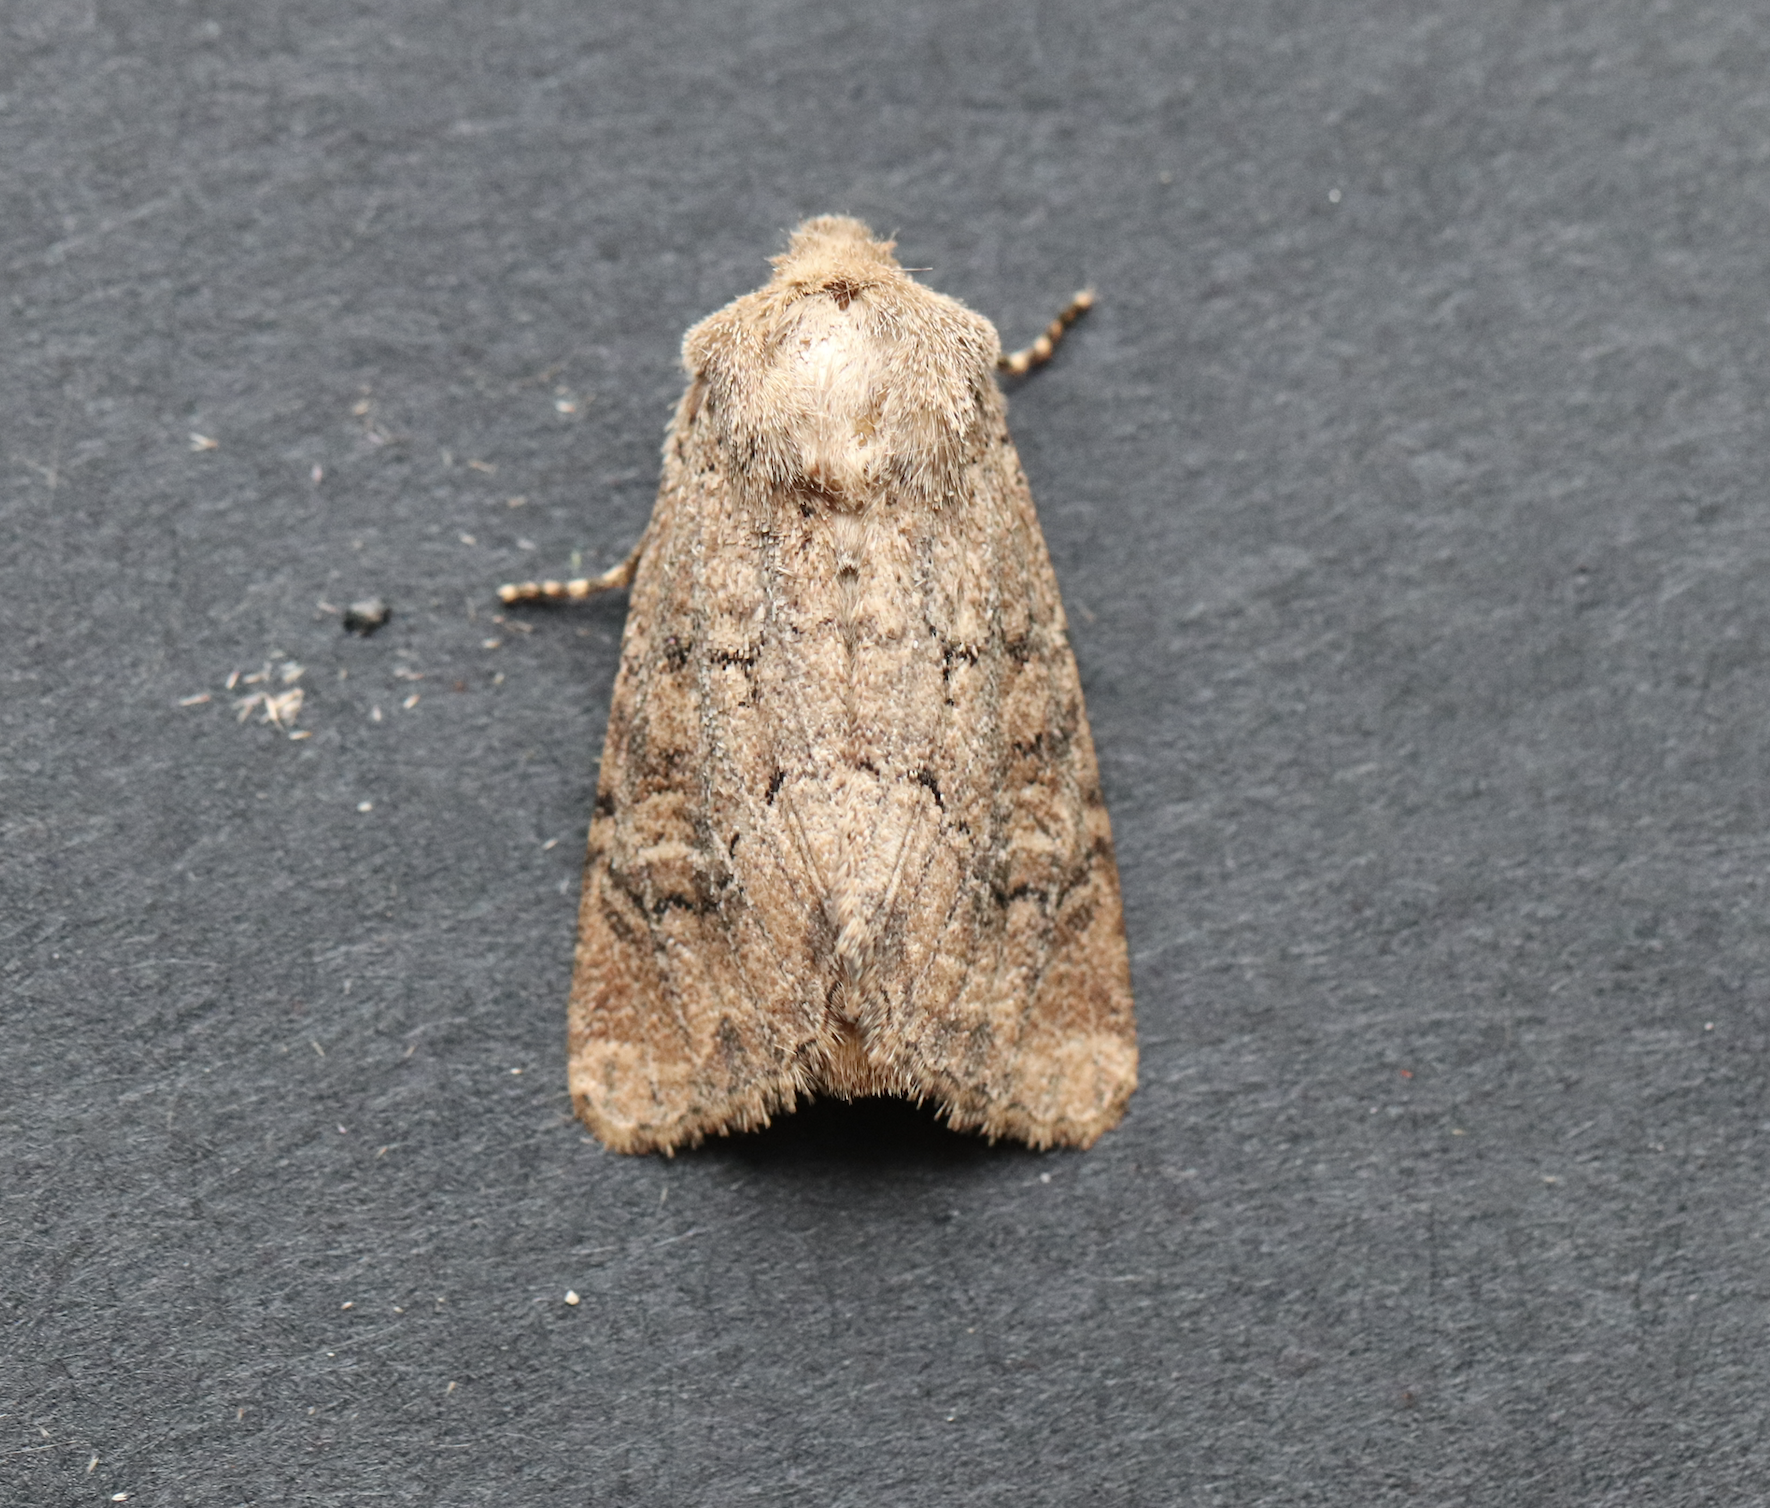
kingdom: Animalia
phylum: Arthropoda
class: Insecta
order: Lepidoptera
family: Noctuidae
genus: Luperina
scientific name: Luperina testacea
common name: Flounced rustic
